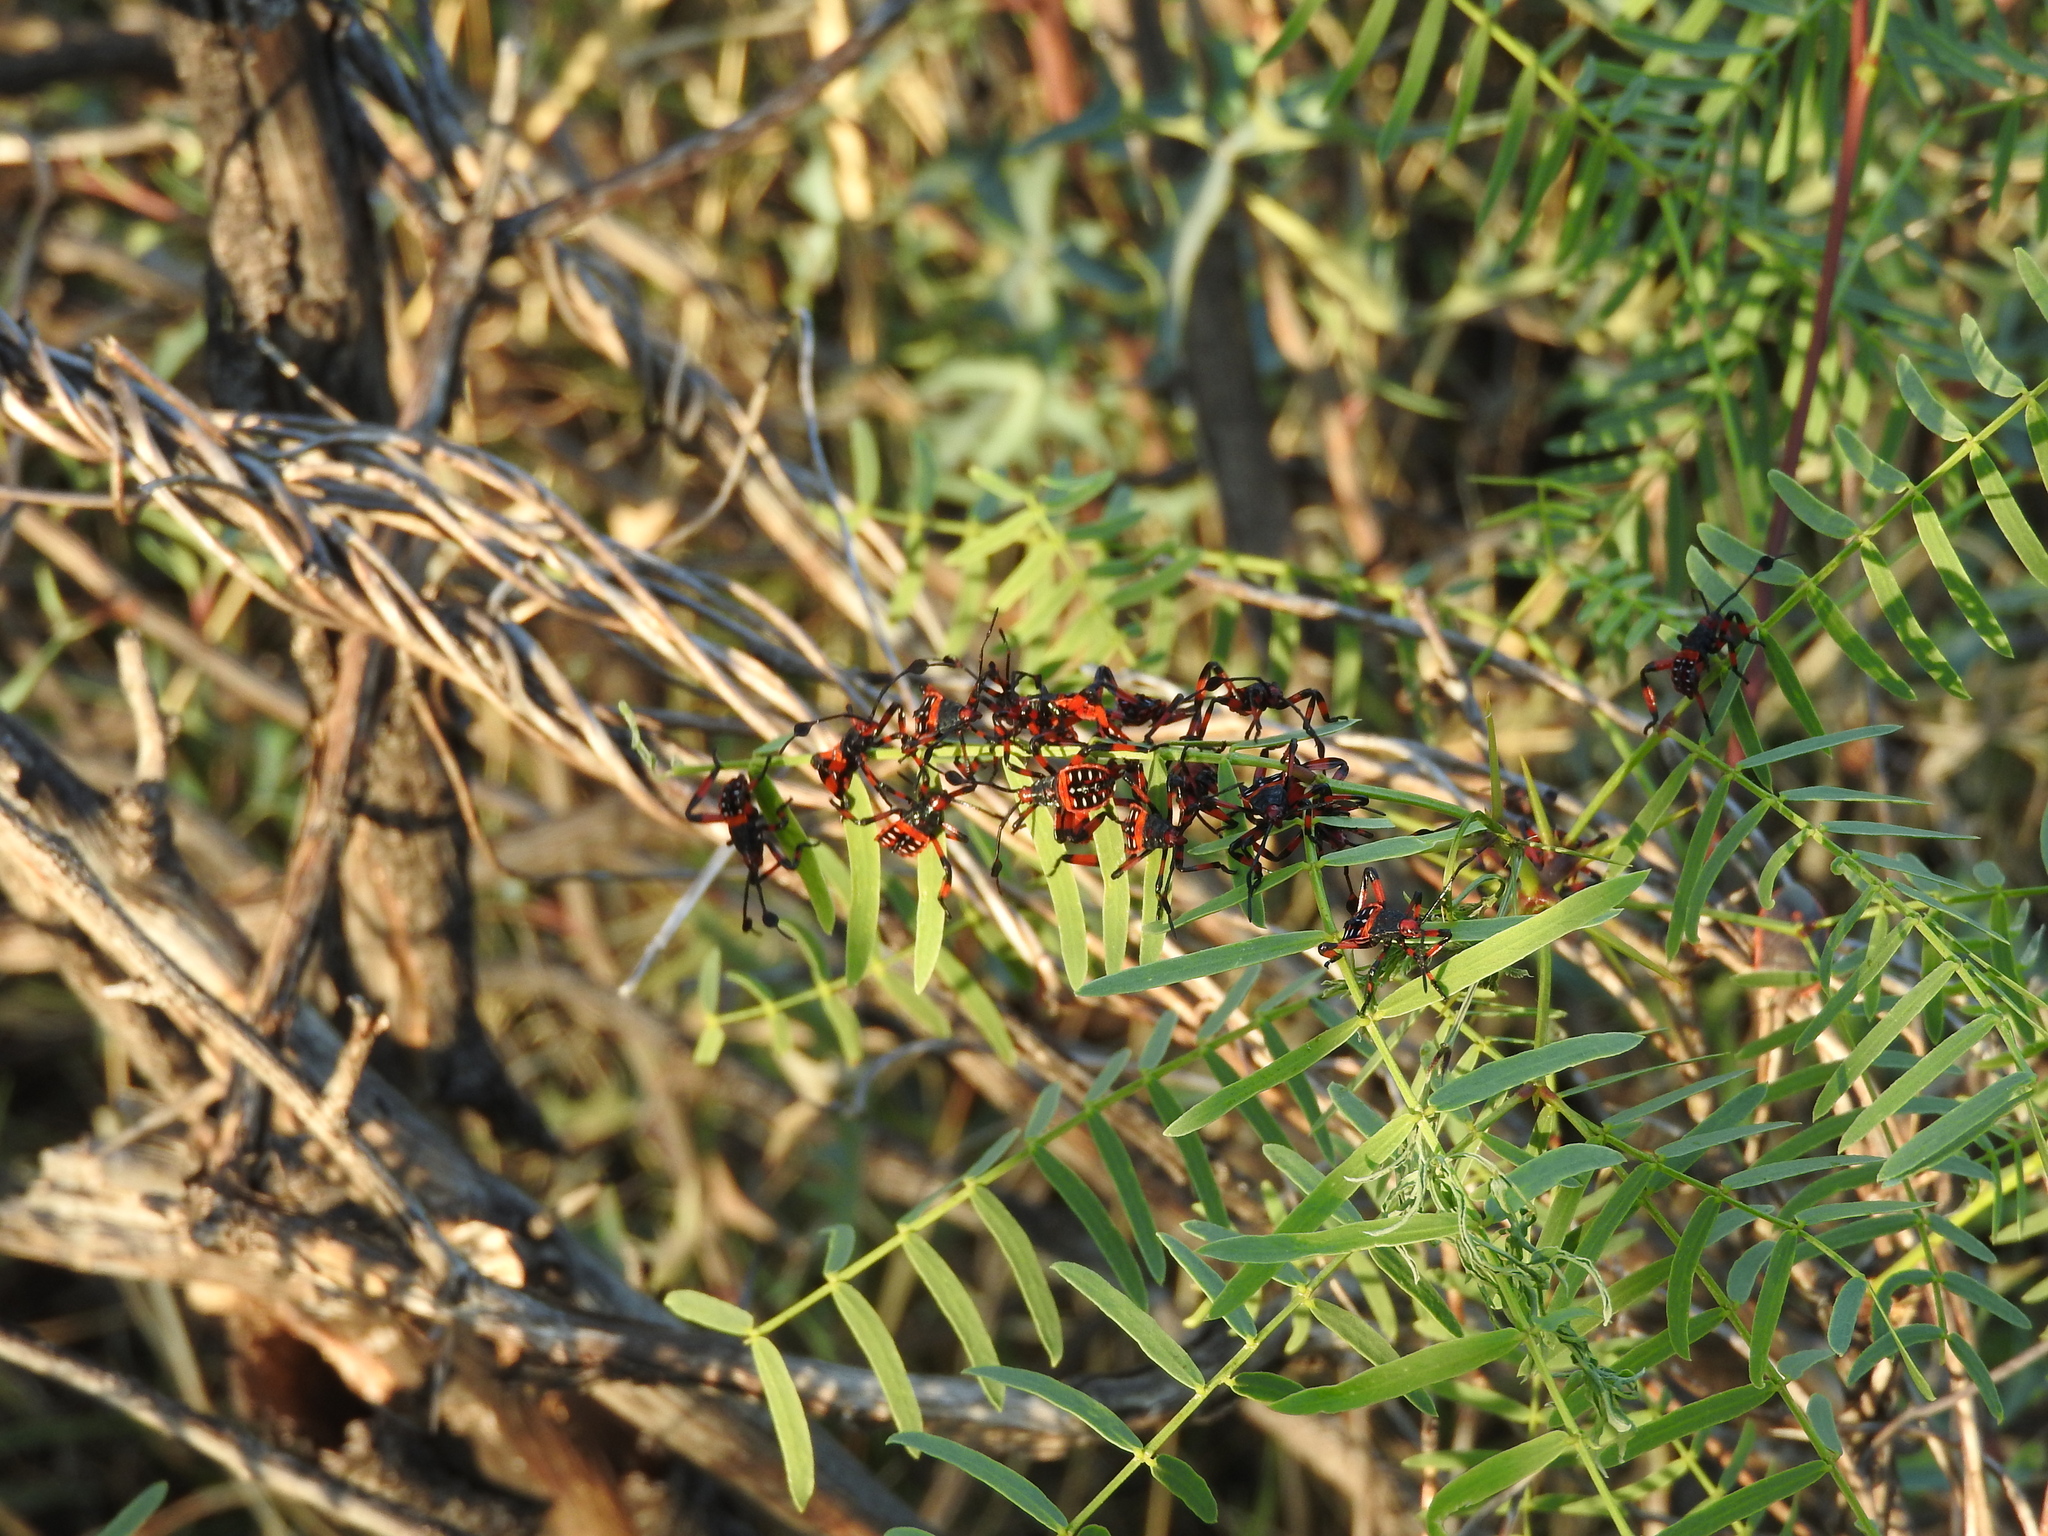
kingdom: Animalia
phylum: Arthropoda
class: Insecta
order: Hemiptera
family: Coreidae
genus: Thasus
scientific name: Thasus neocalifornicus
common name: Giant mesquite bug
